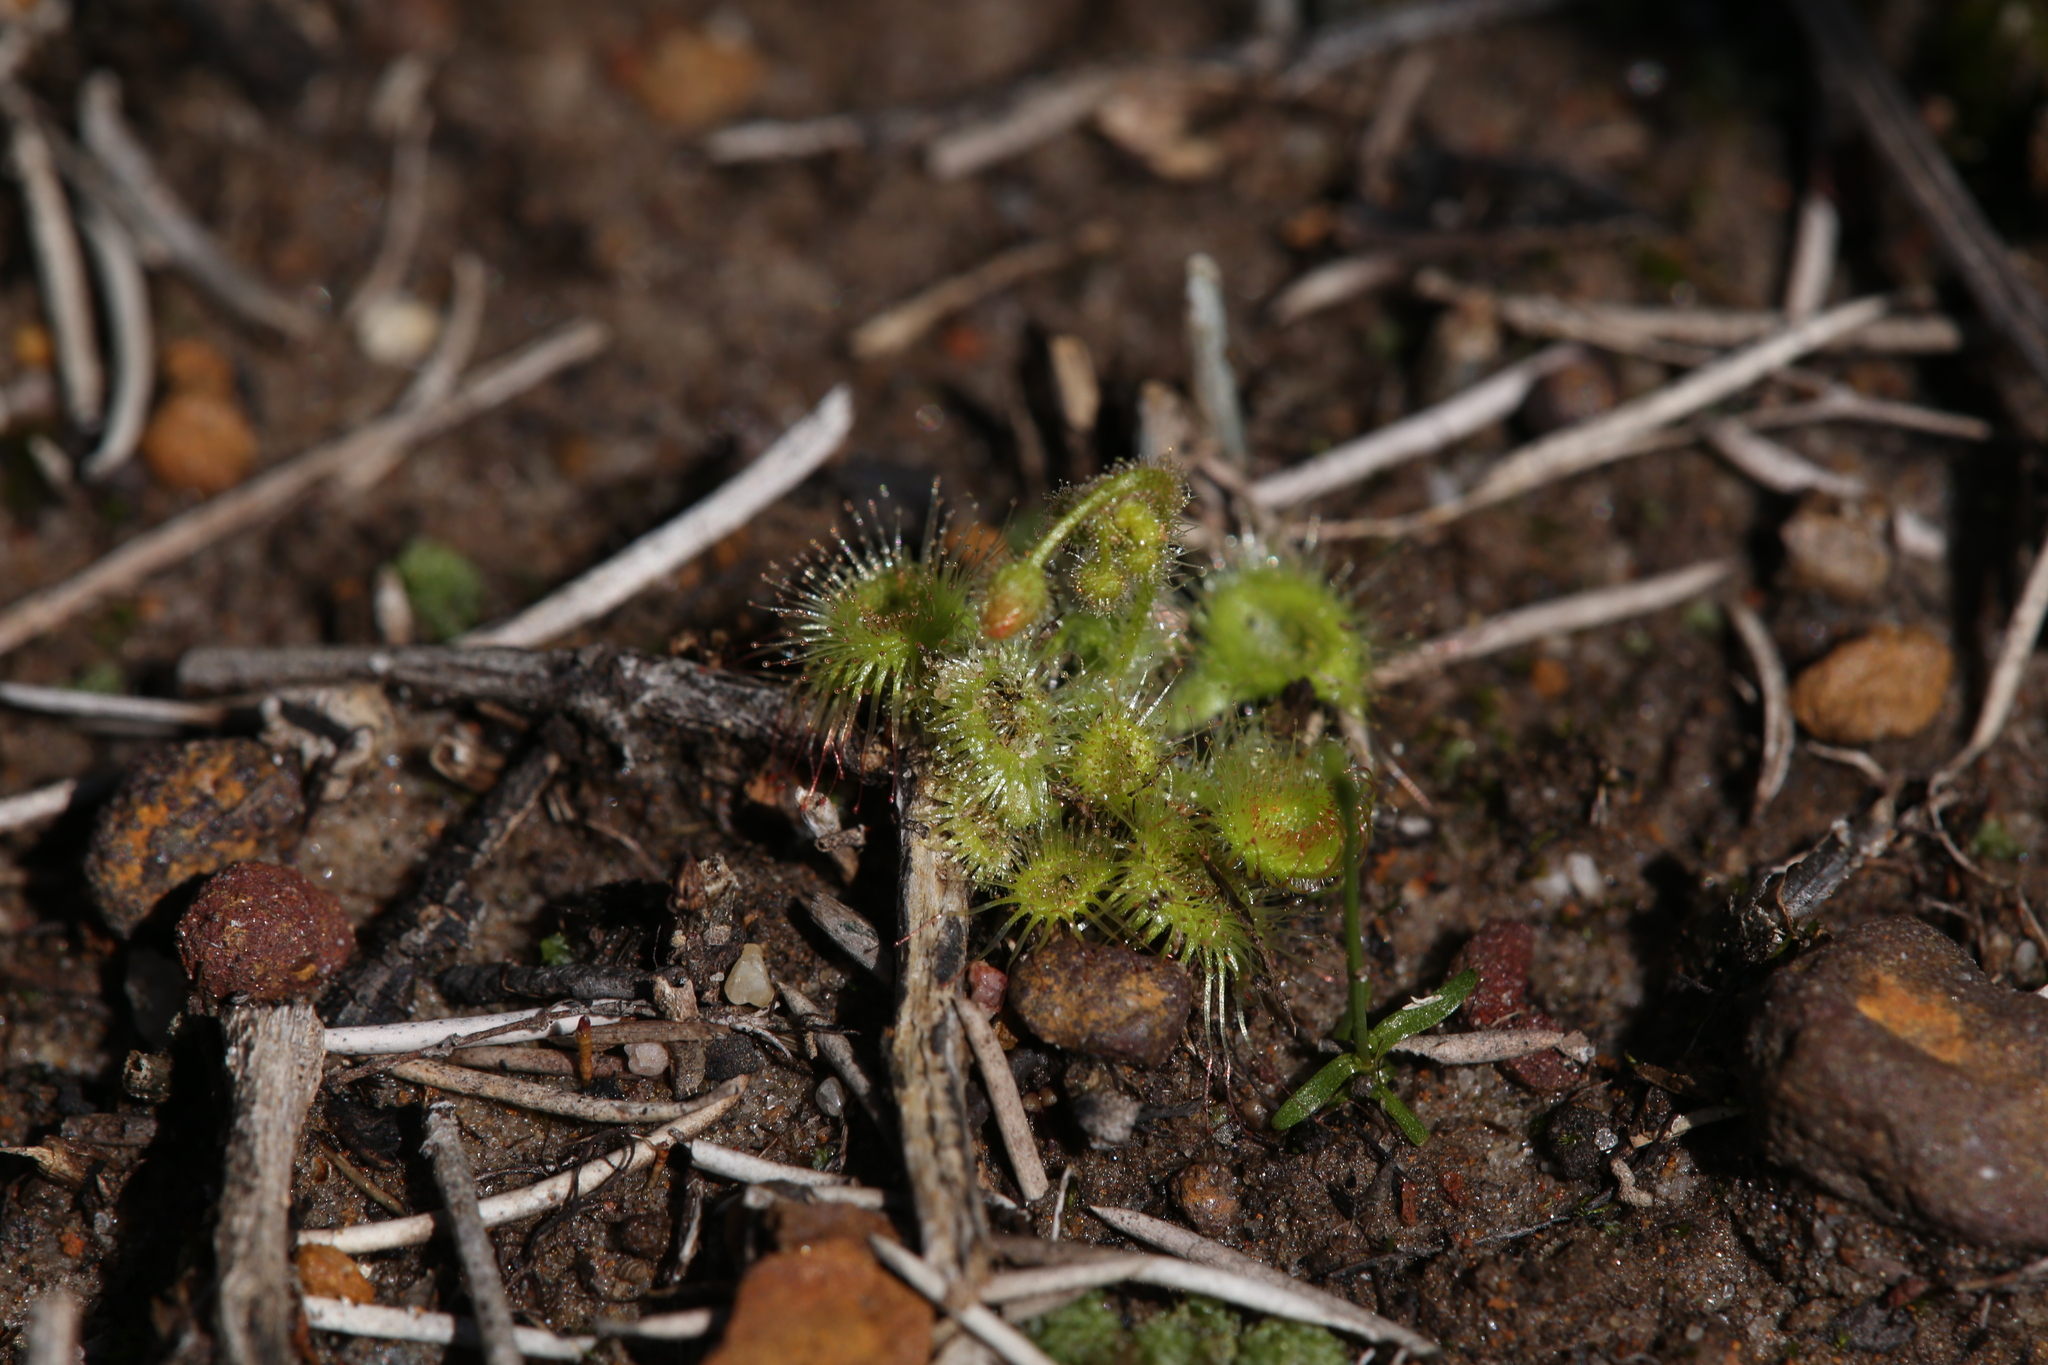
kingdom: Plantae
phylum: Tracheophyta
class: Magnoliopsida
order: Caryophyllales
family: Droseraceae
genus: Drosera
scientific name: Drosera glanduligera
